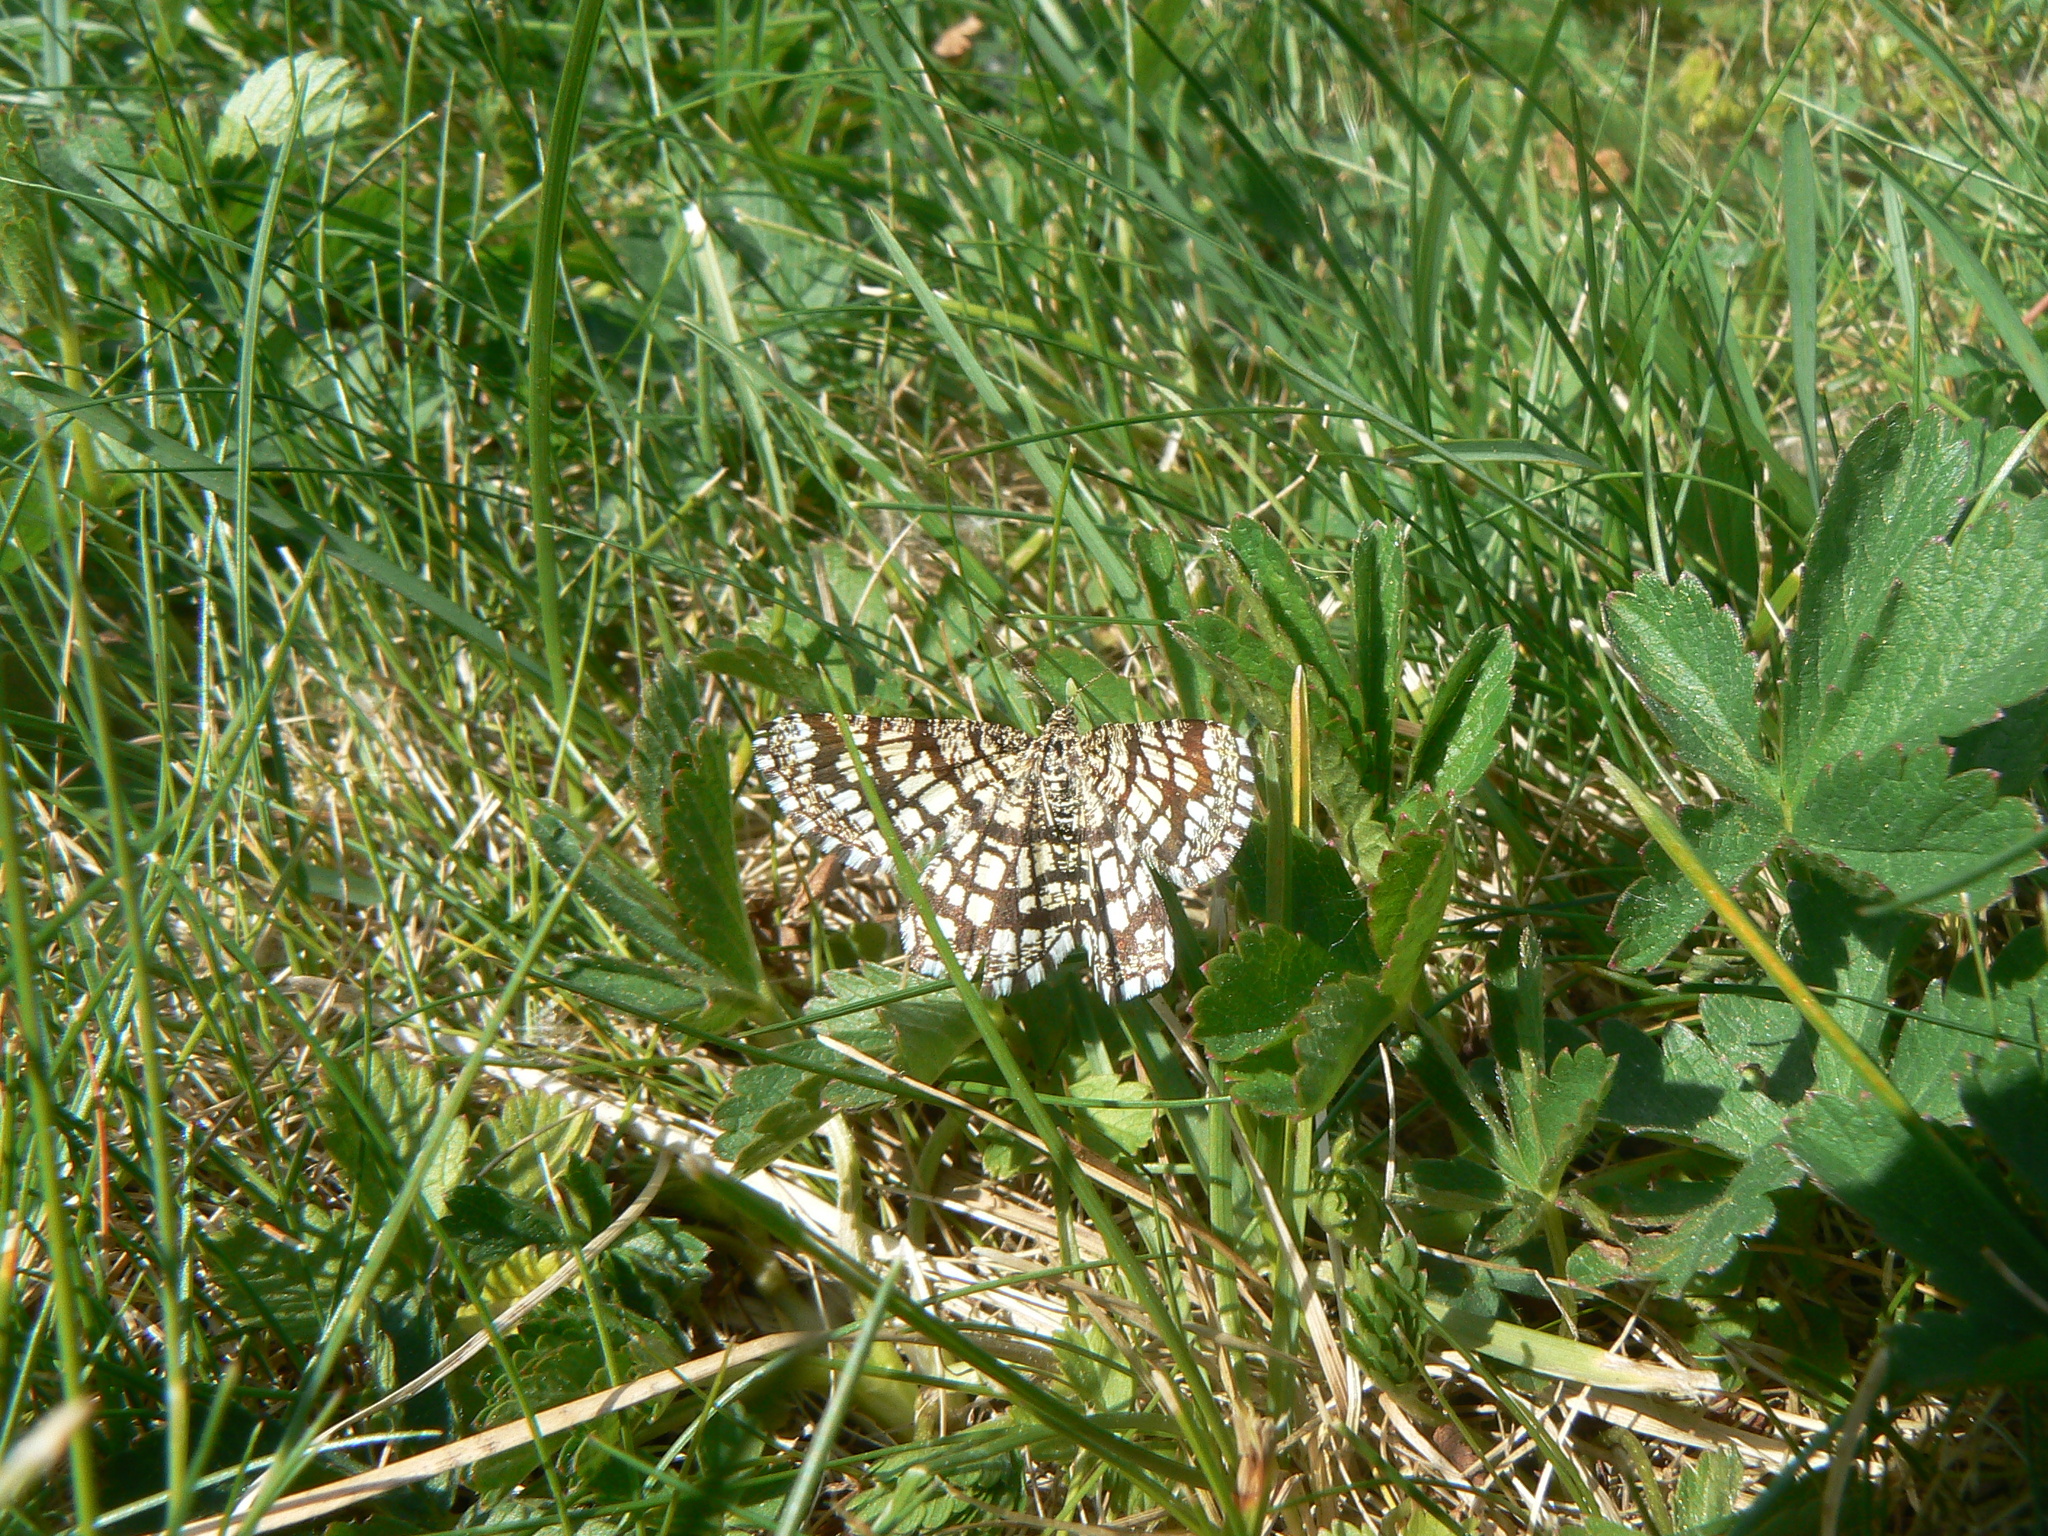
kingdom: Animalia
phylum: Arthropoda
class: Insecta
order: Lepidoptera
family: Geometridae
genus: Chiasmia
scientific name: Chiasmia clathrata
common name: Latticed heath
